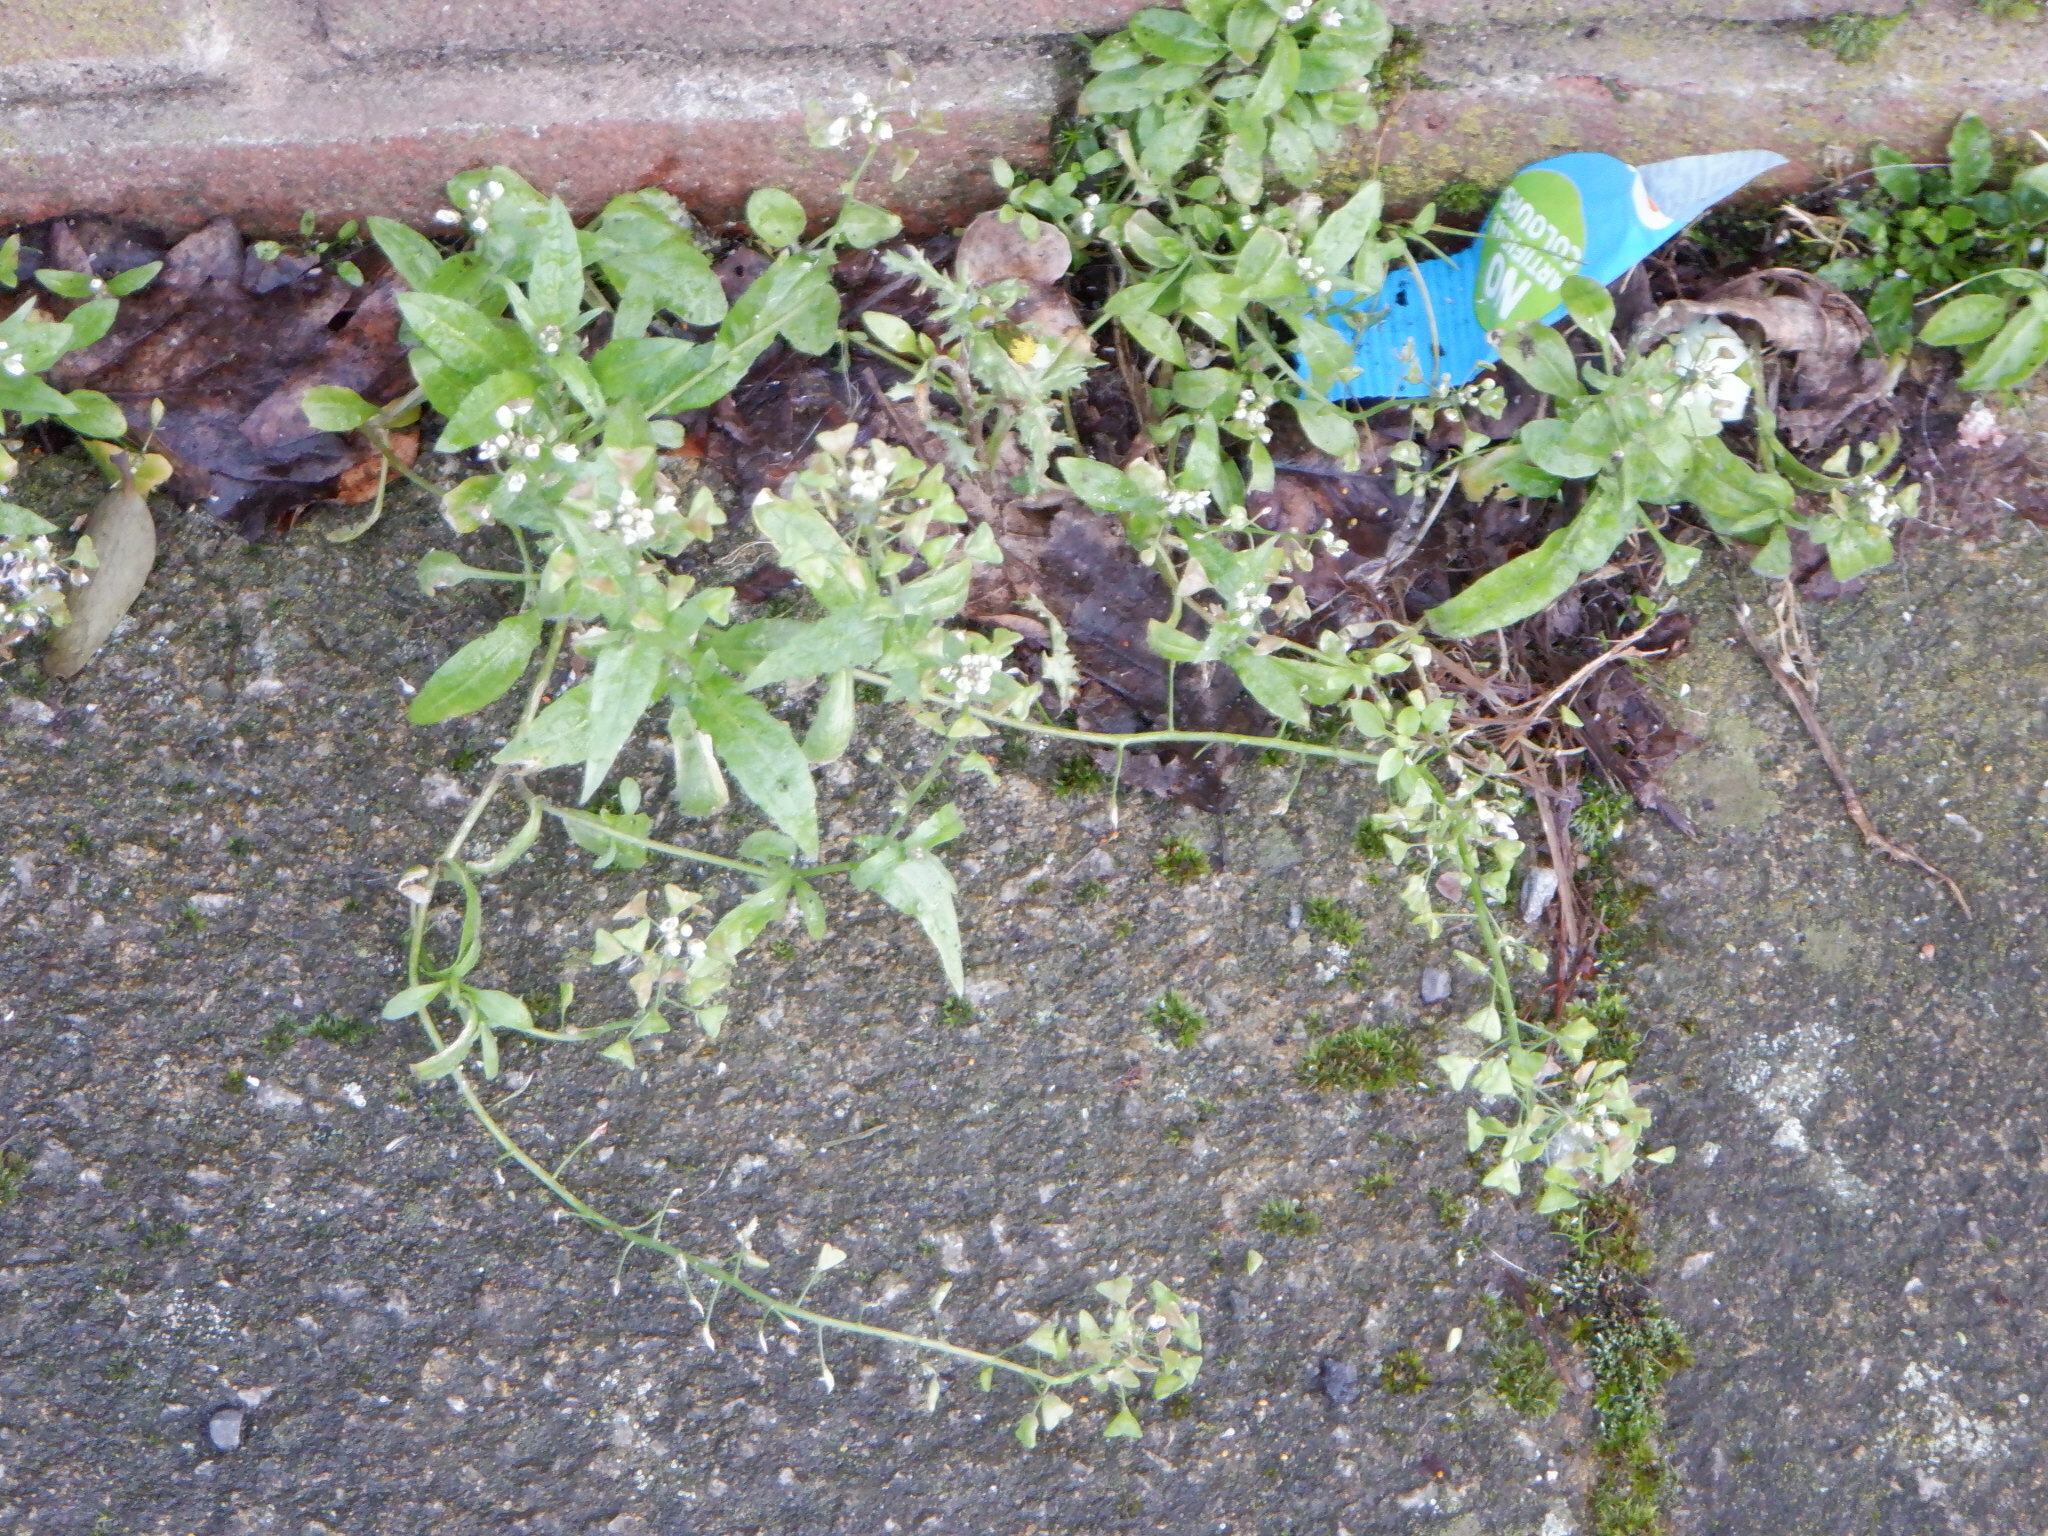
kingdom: Plantae
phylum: Tracheophyta
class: Magnoliopsida
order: Brassicales
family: Brassicaceae
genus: Capsella
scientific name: Capsella bursa-pastoris
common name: Shepherd's purse
